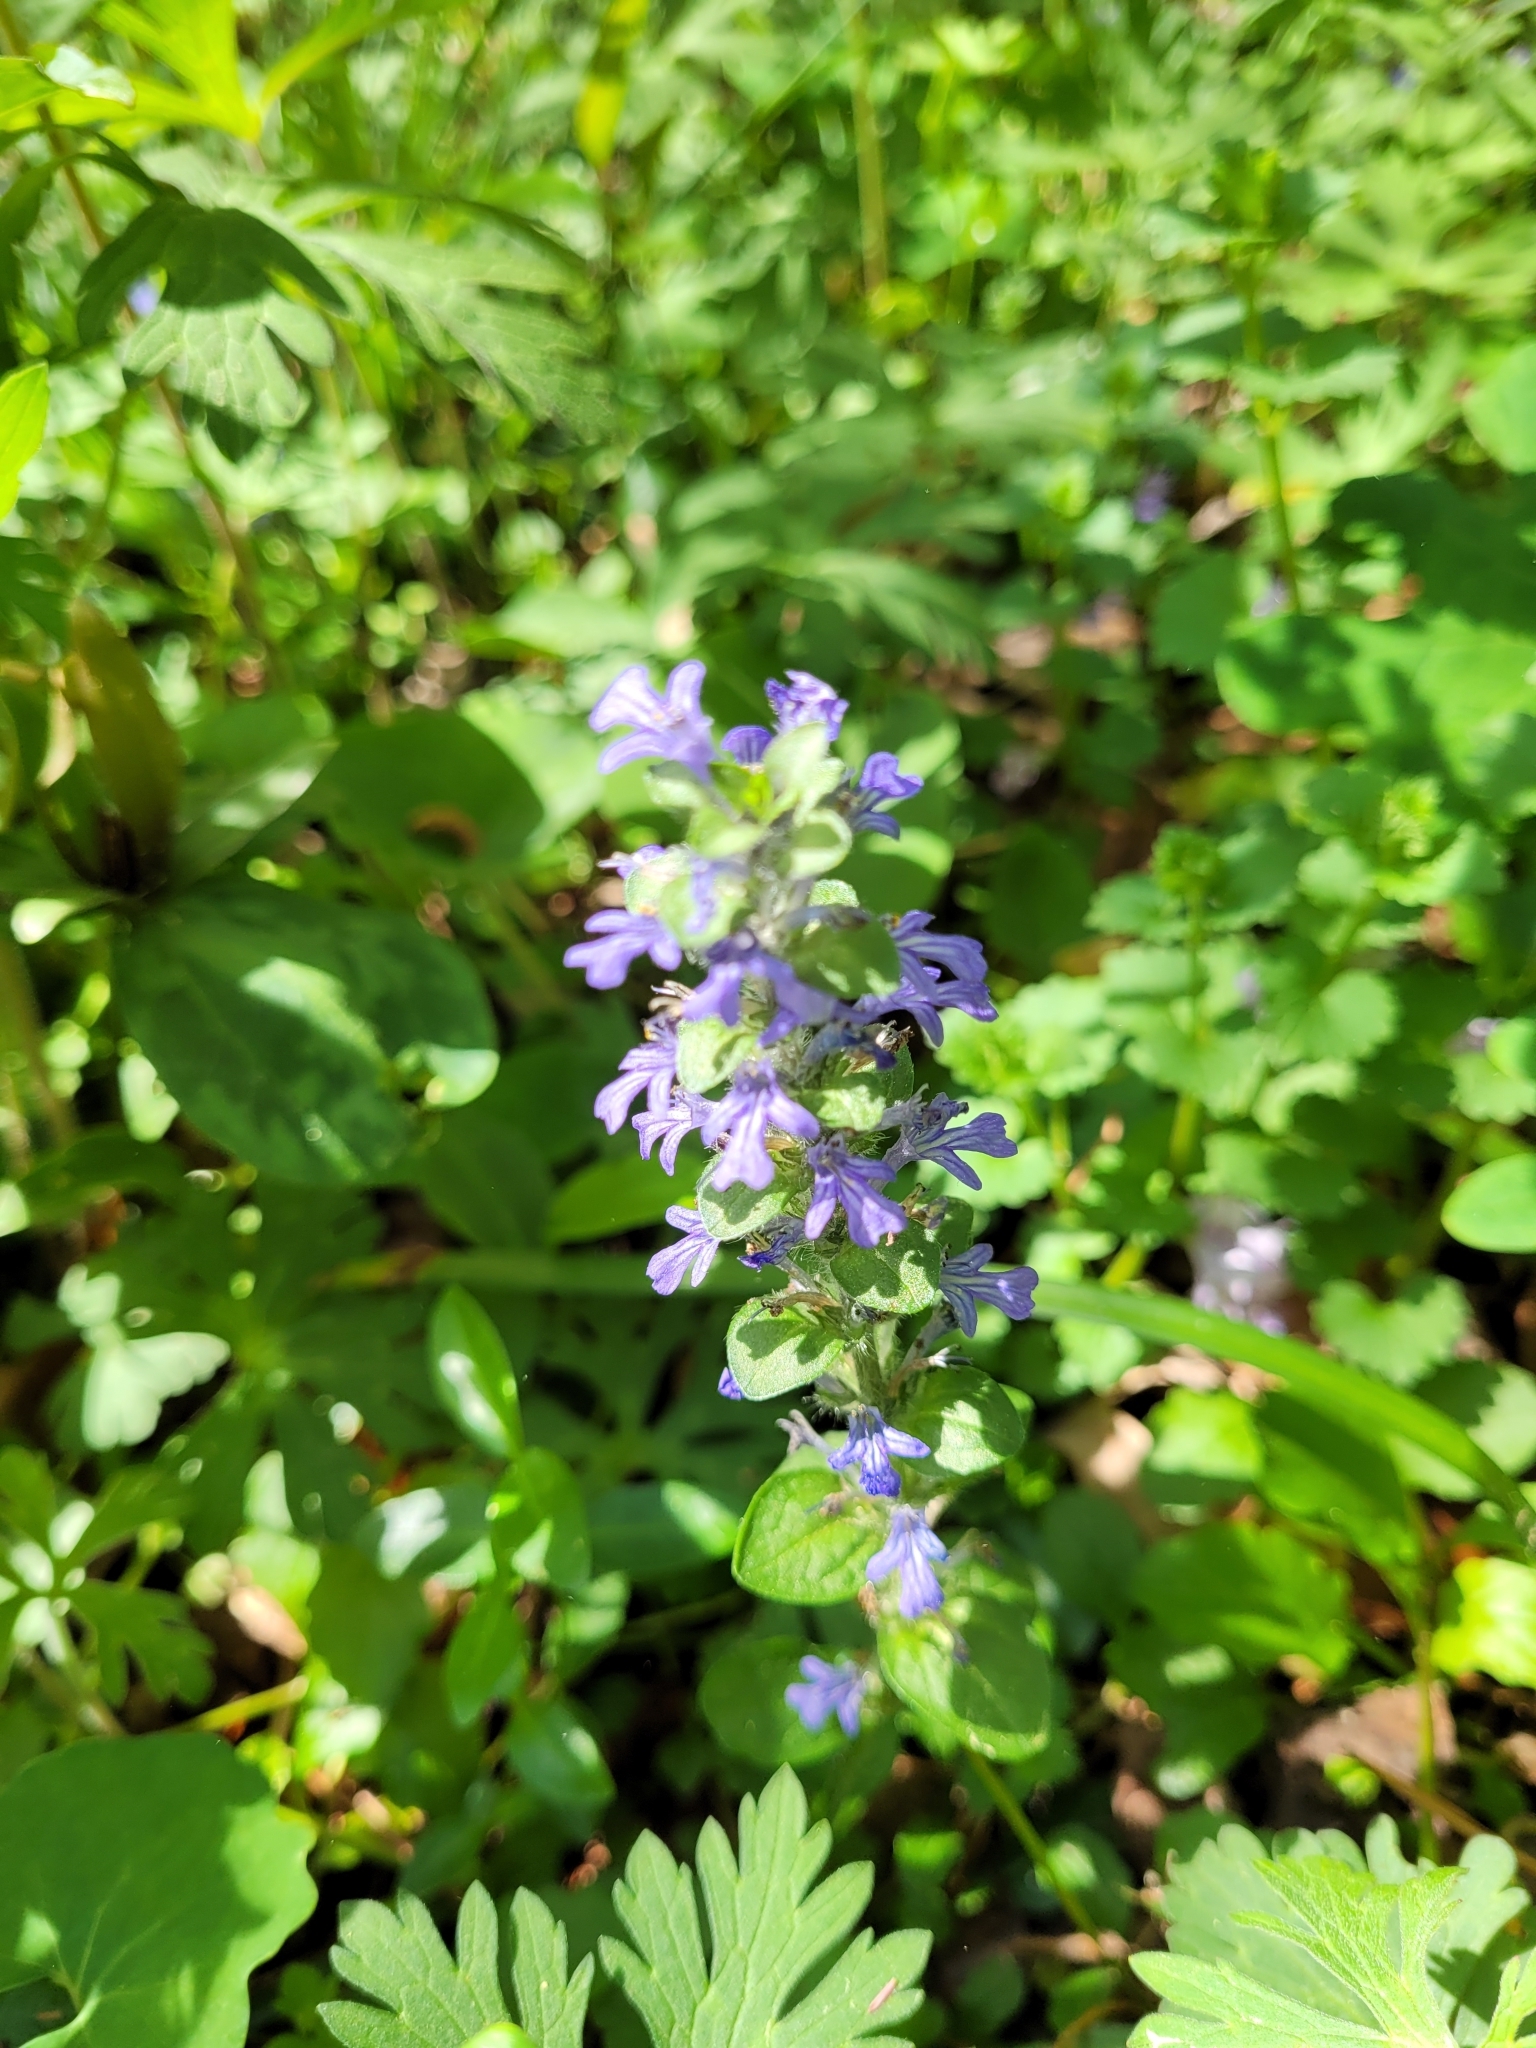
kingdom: Plantae
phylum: Tracheophyta
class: Magnoliopsida
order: Lamiales
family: Lamiaceae
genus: Ajuga
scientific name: Ajuga reptans
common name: Bugle
